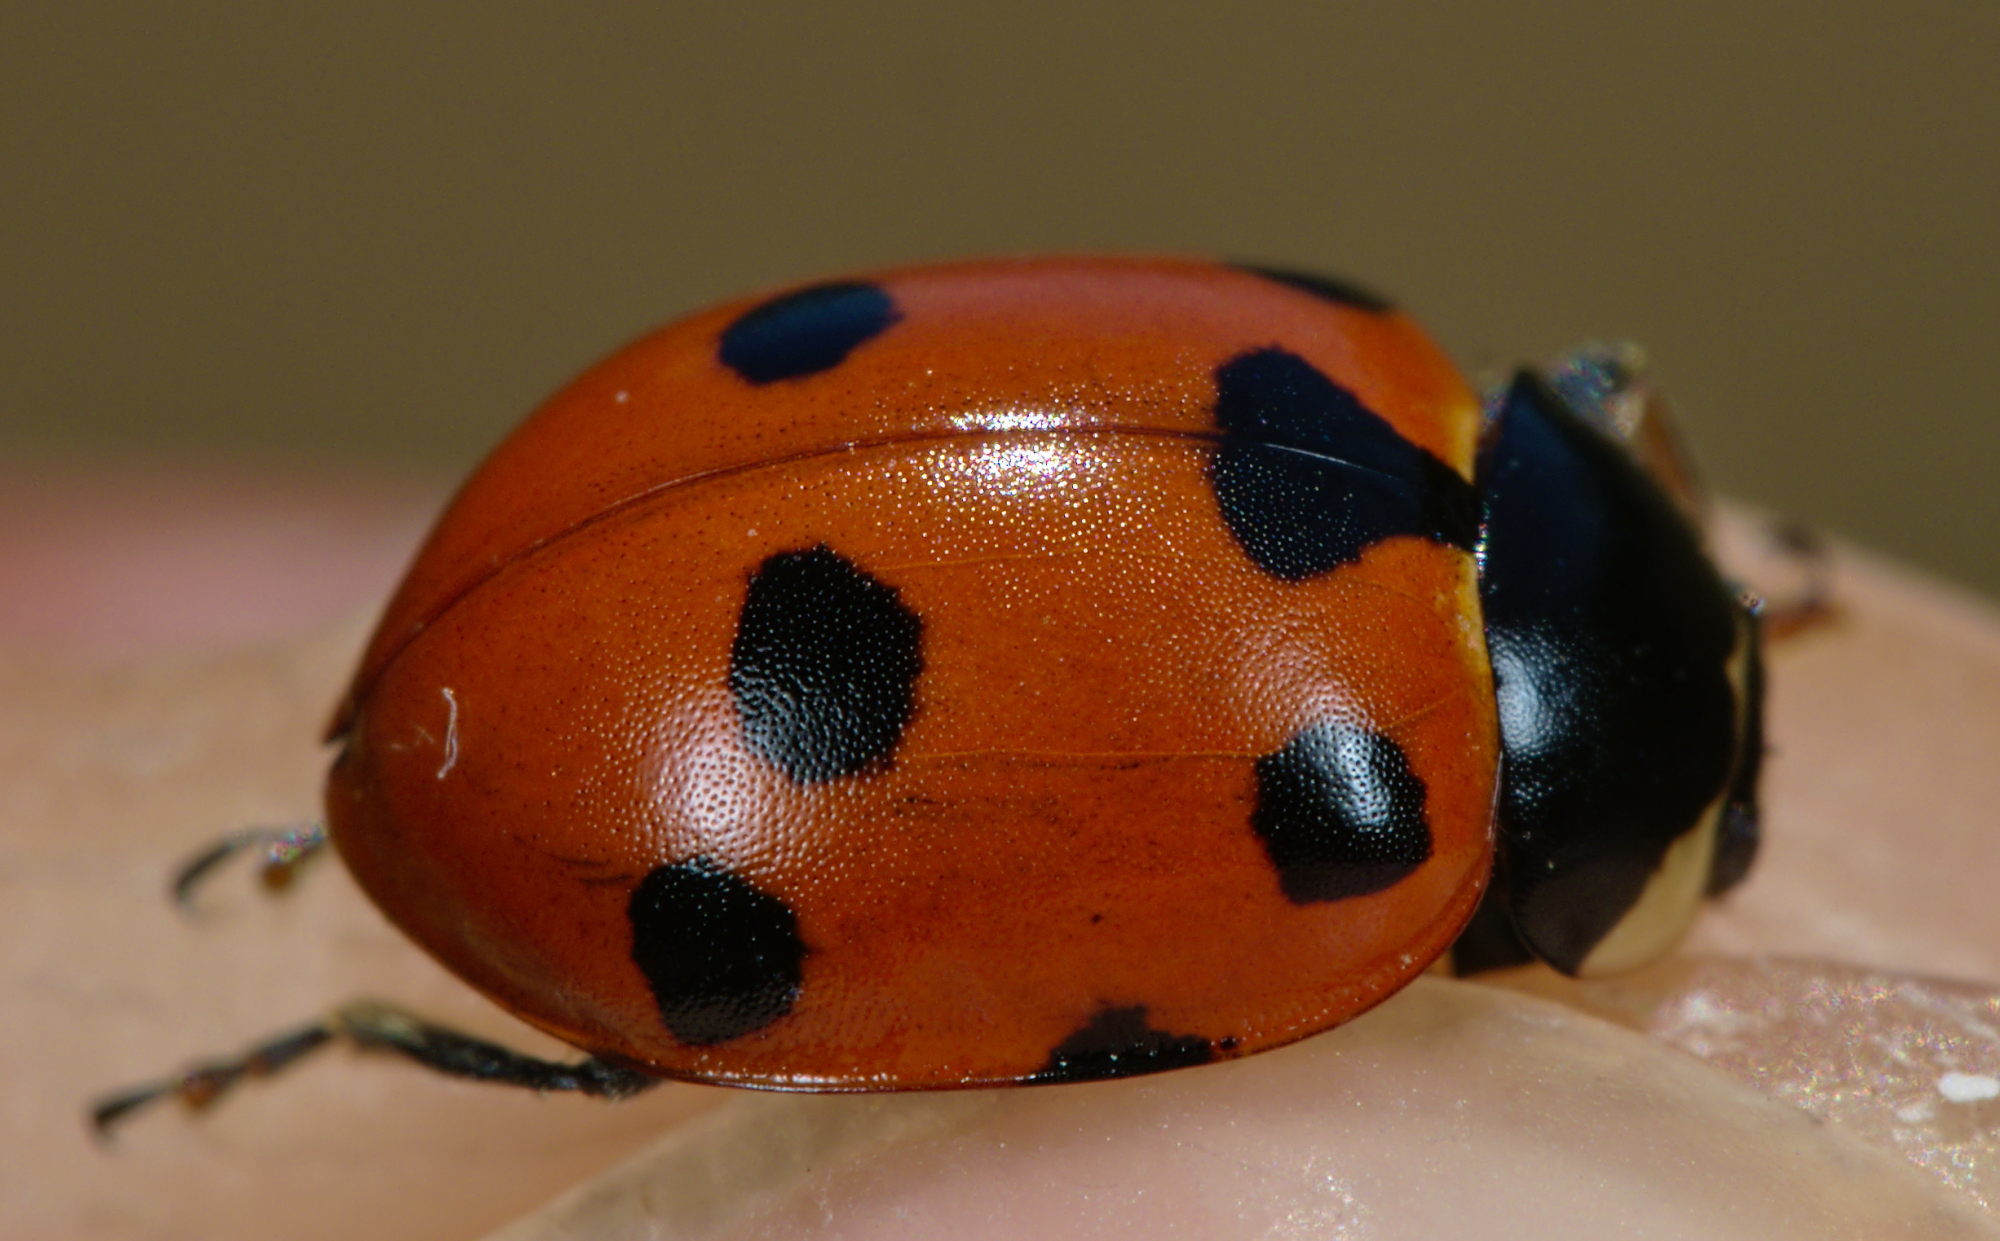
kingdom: Animalia
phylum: Arthropoda
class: Insecta
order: Coleoptera
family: Coccinellidae
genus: Ceratomegilla
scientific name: Ceratomegilla undecimnotata
